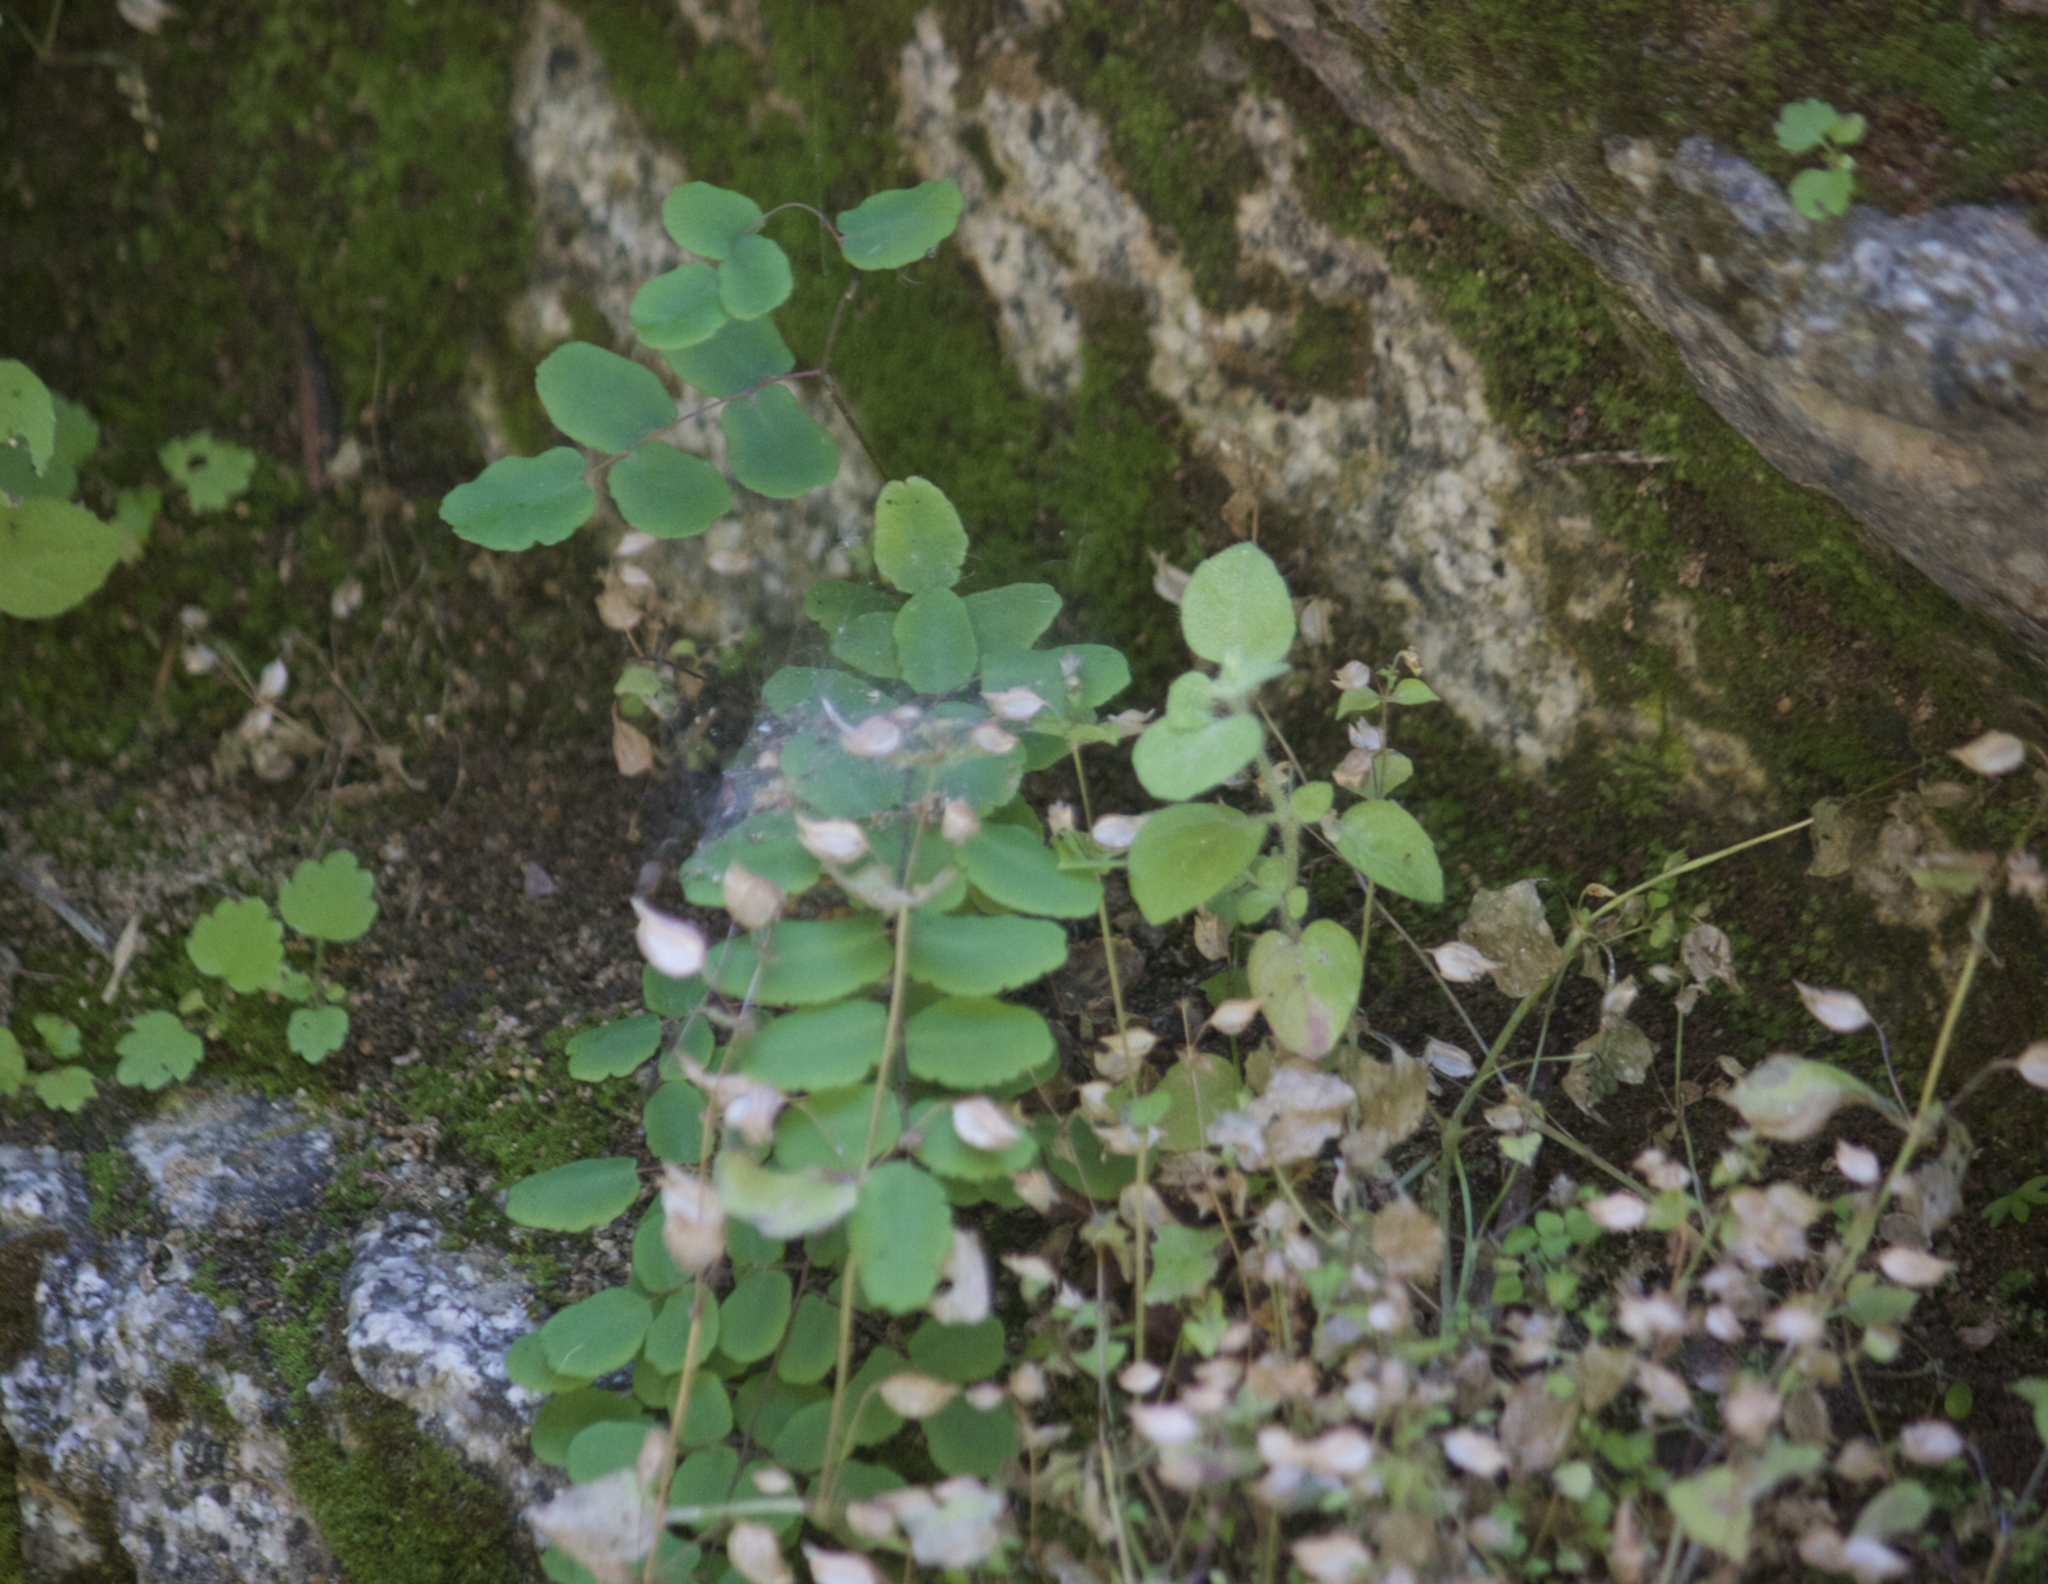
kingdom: Plantae
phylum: Tracheophyta
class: Polypodiopsida
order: Polypodiales
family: Pteridaceae
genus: Pellaea
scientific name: Pellaea andromedifolia
